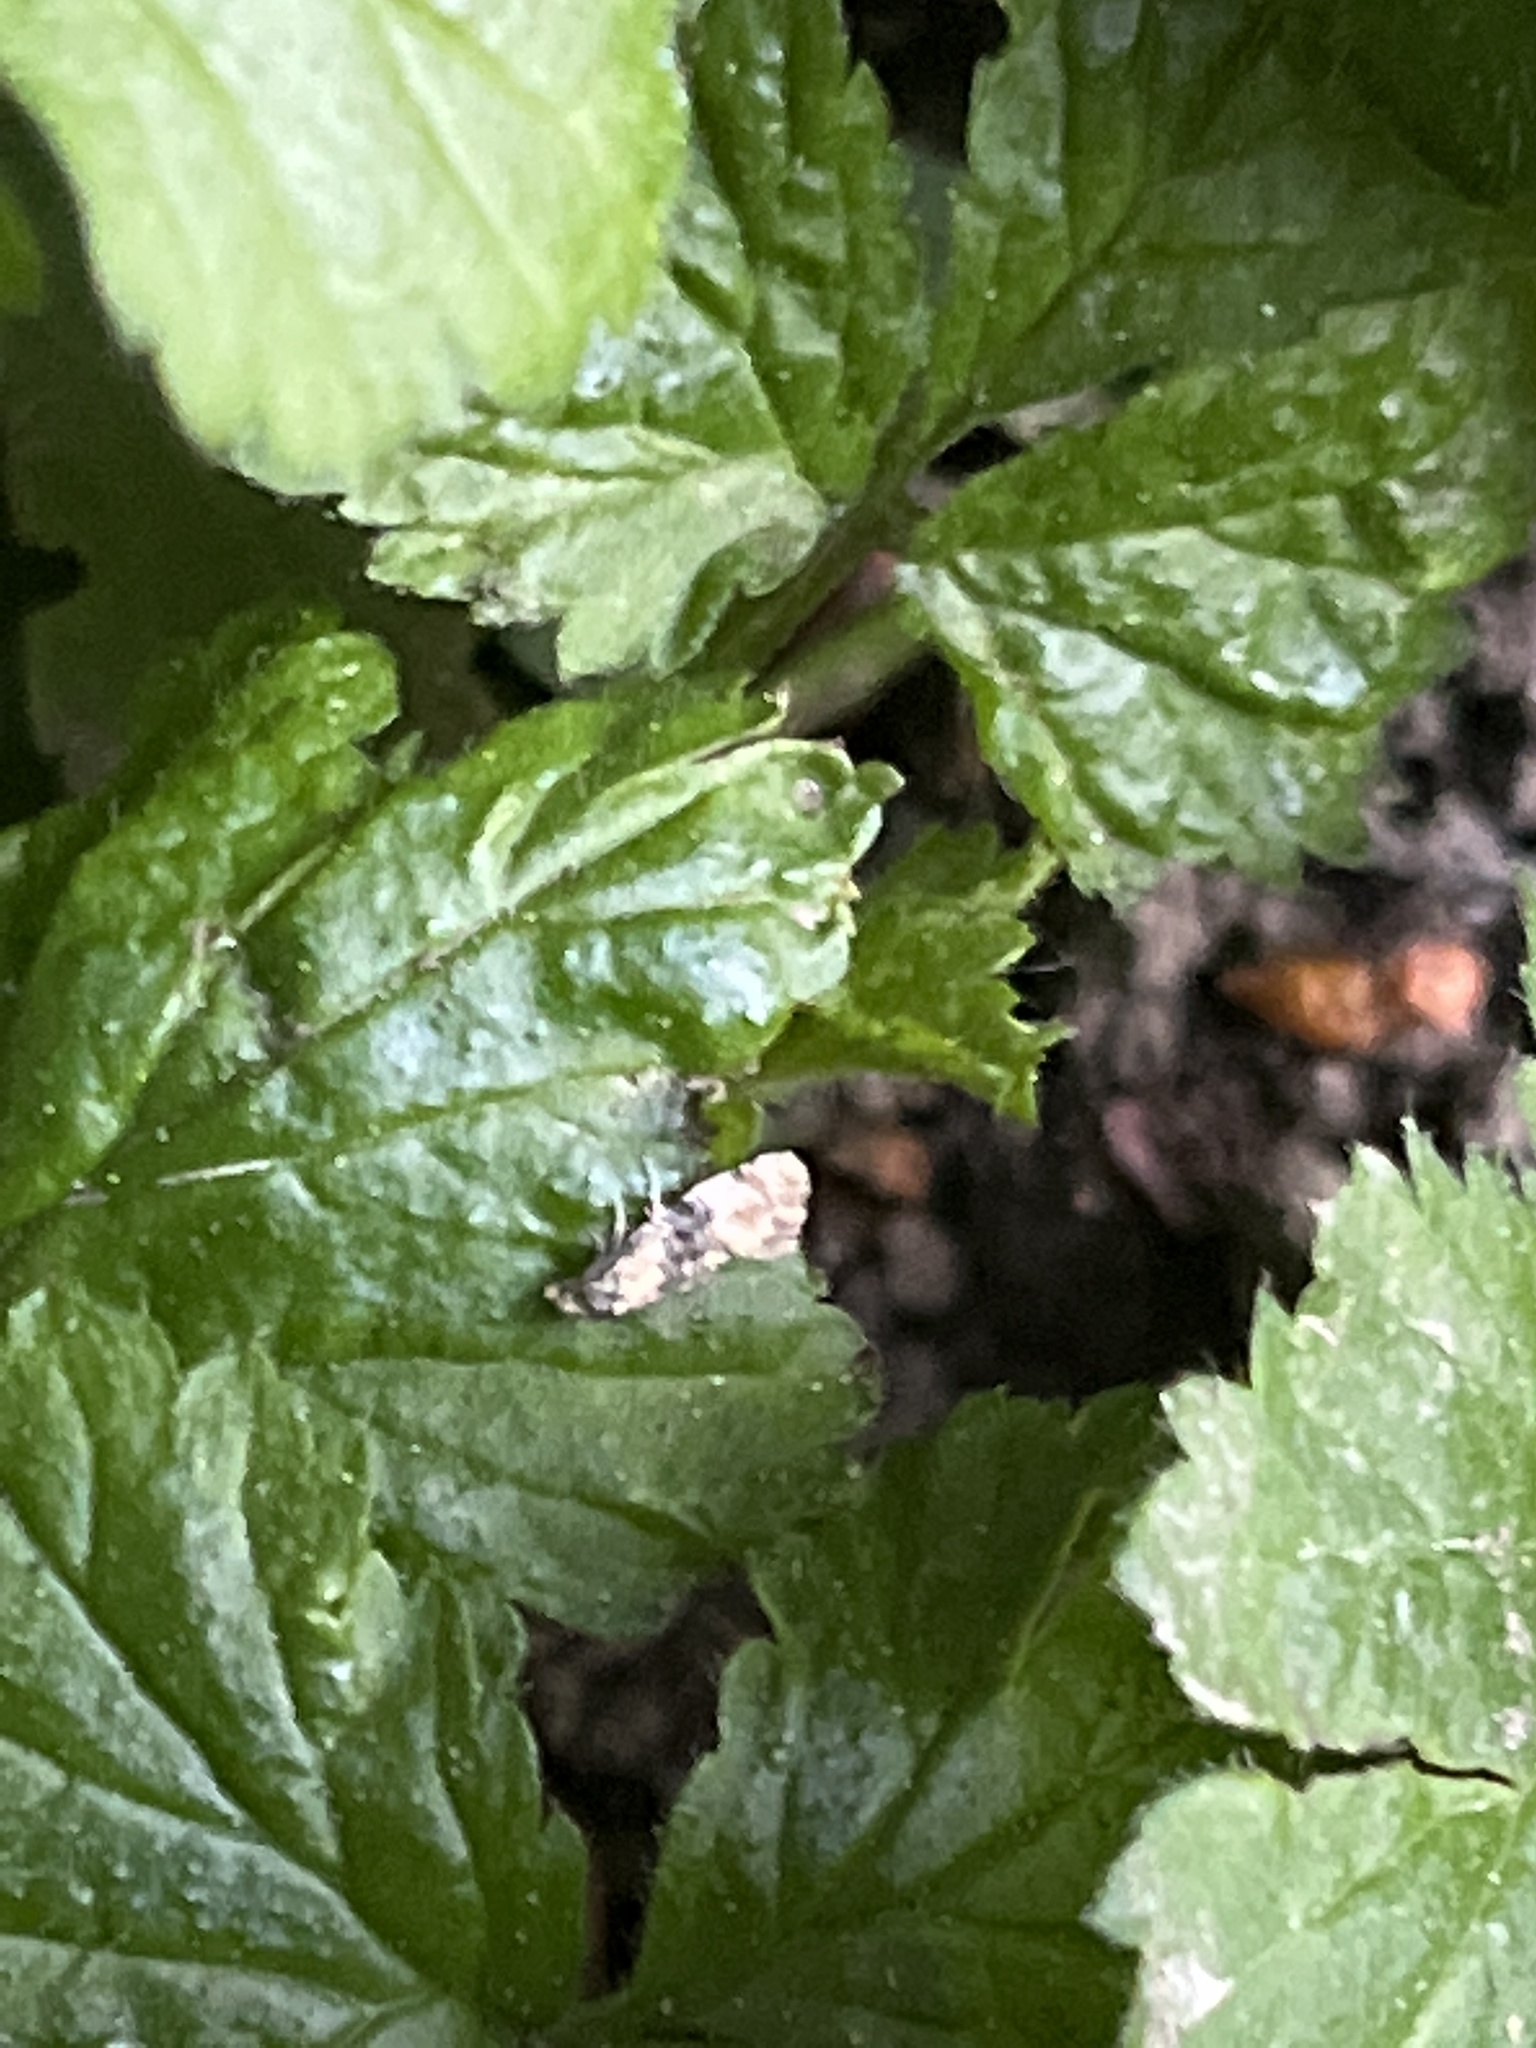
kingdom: Animalia
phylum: Arthropoda
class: Insecta
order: Lepidoptera
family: Tortricidae
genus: Thyraylia
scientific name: Thyraylia nana
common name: Birch conch
